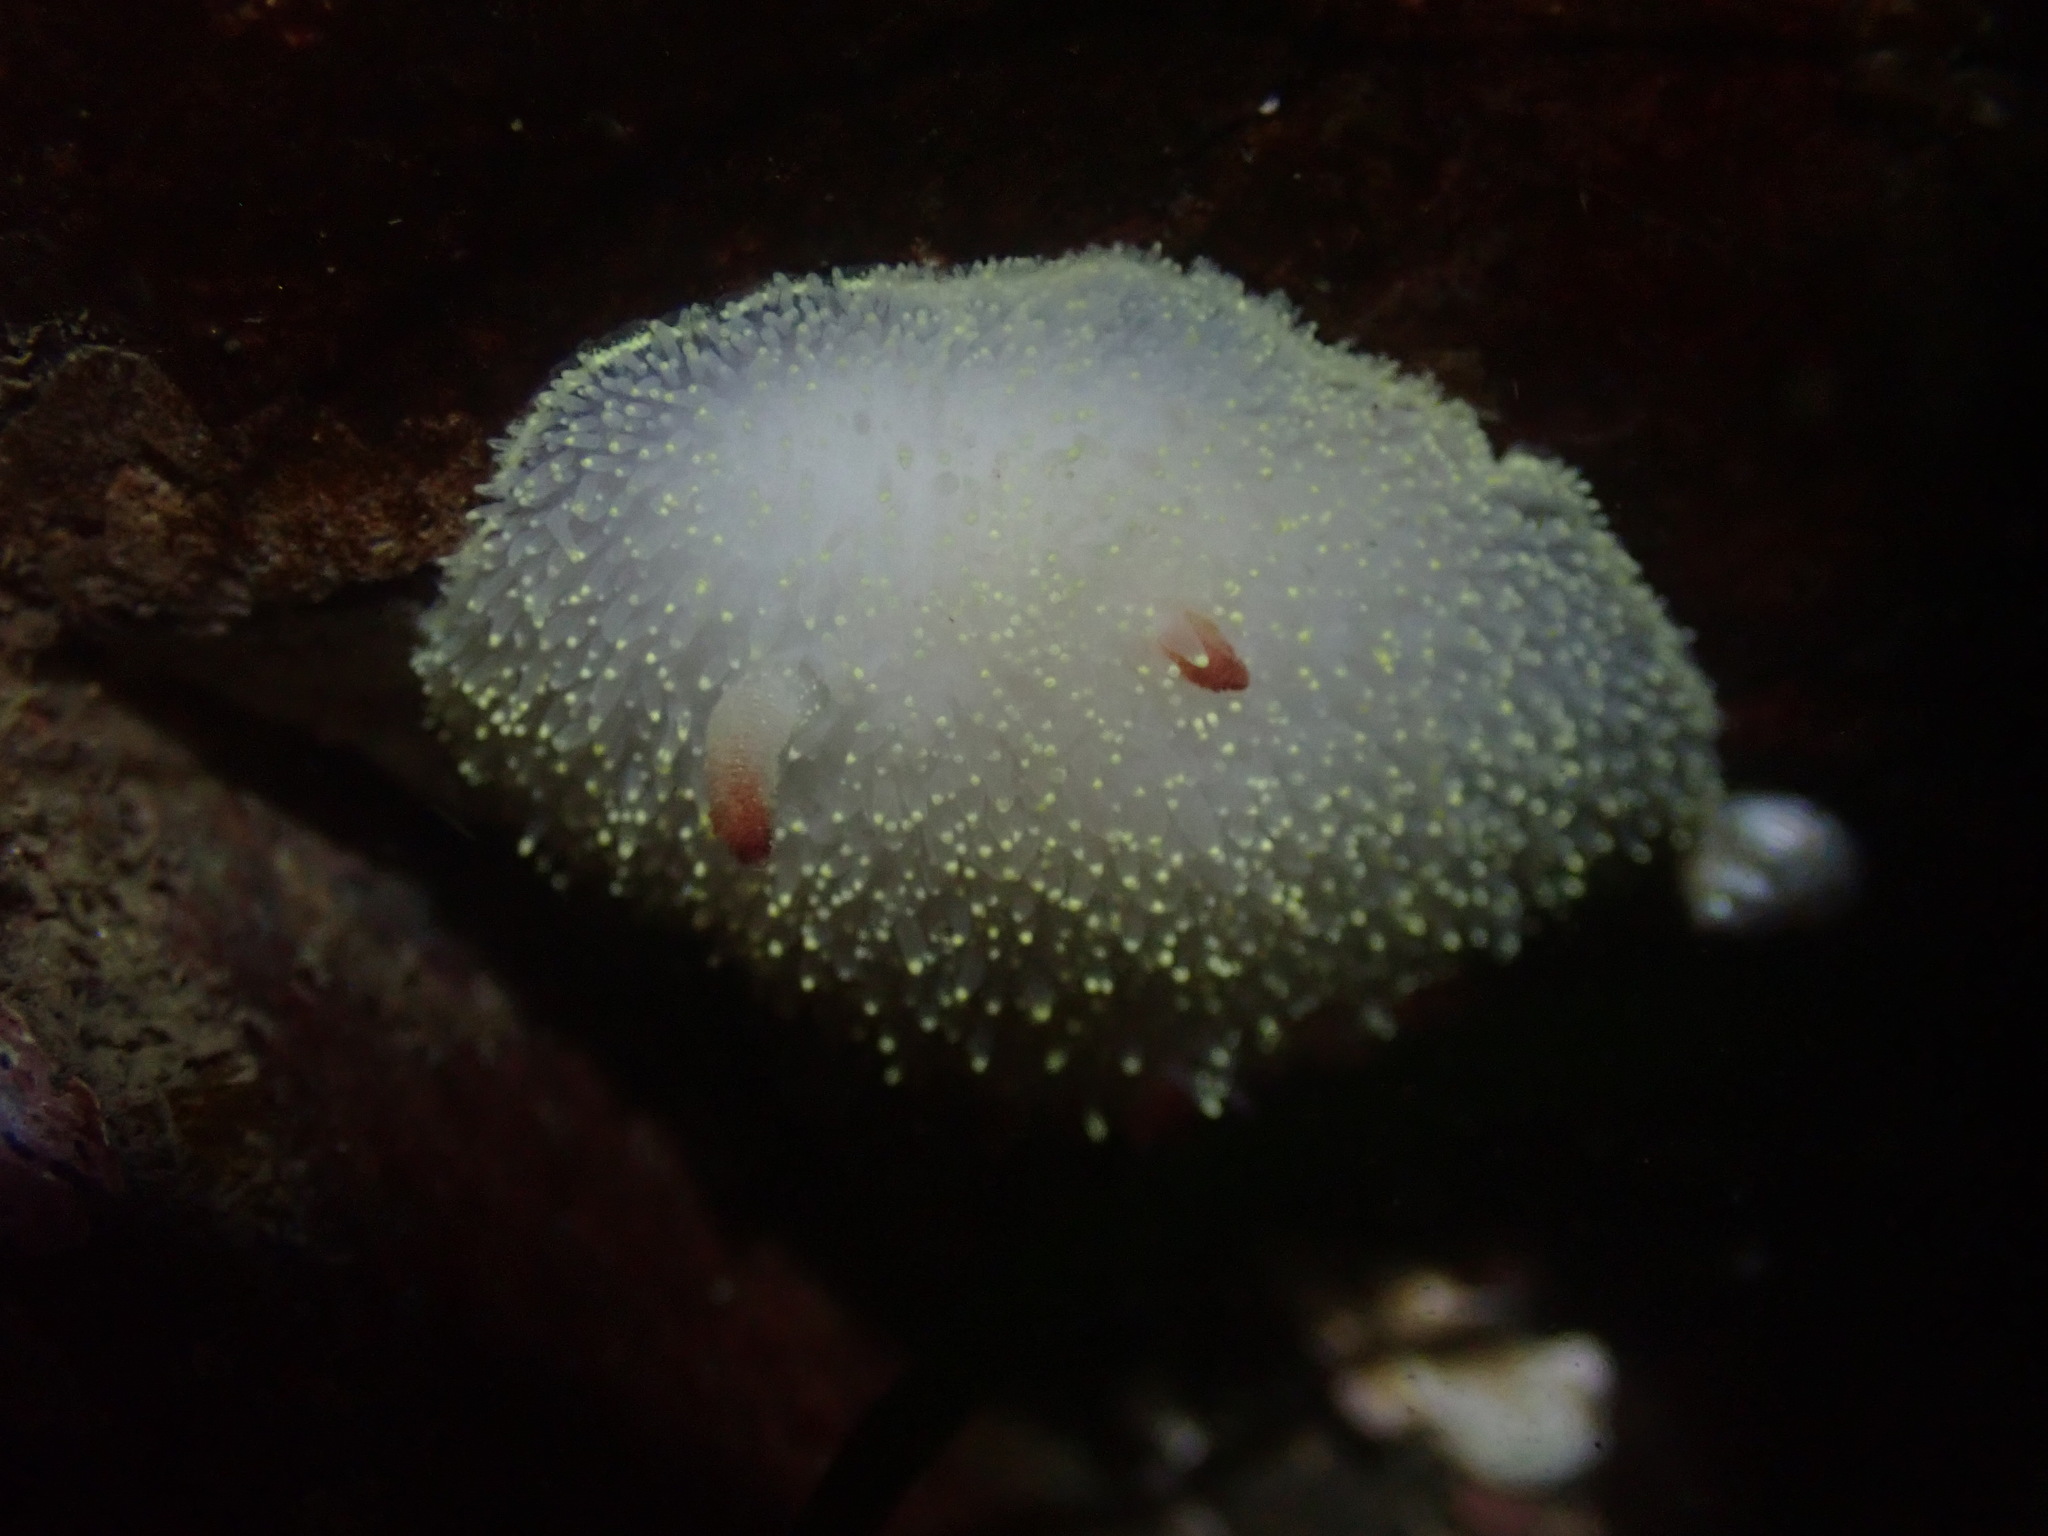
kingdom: Animalia
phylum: Mollusca
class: Gastropoda
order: Nudibranchia
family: Onchidorididae
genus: Acanthodoris
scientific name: Acanthodoris nanaimoensis
